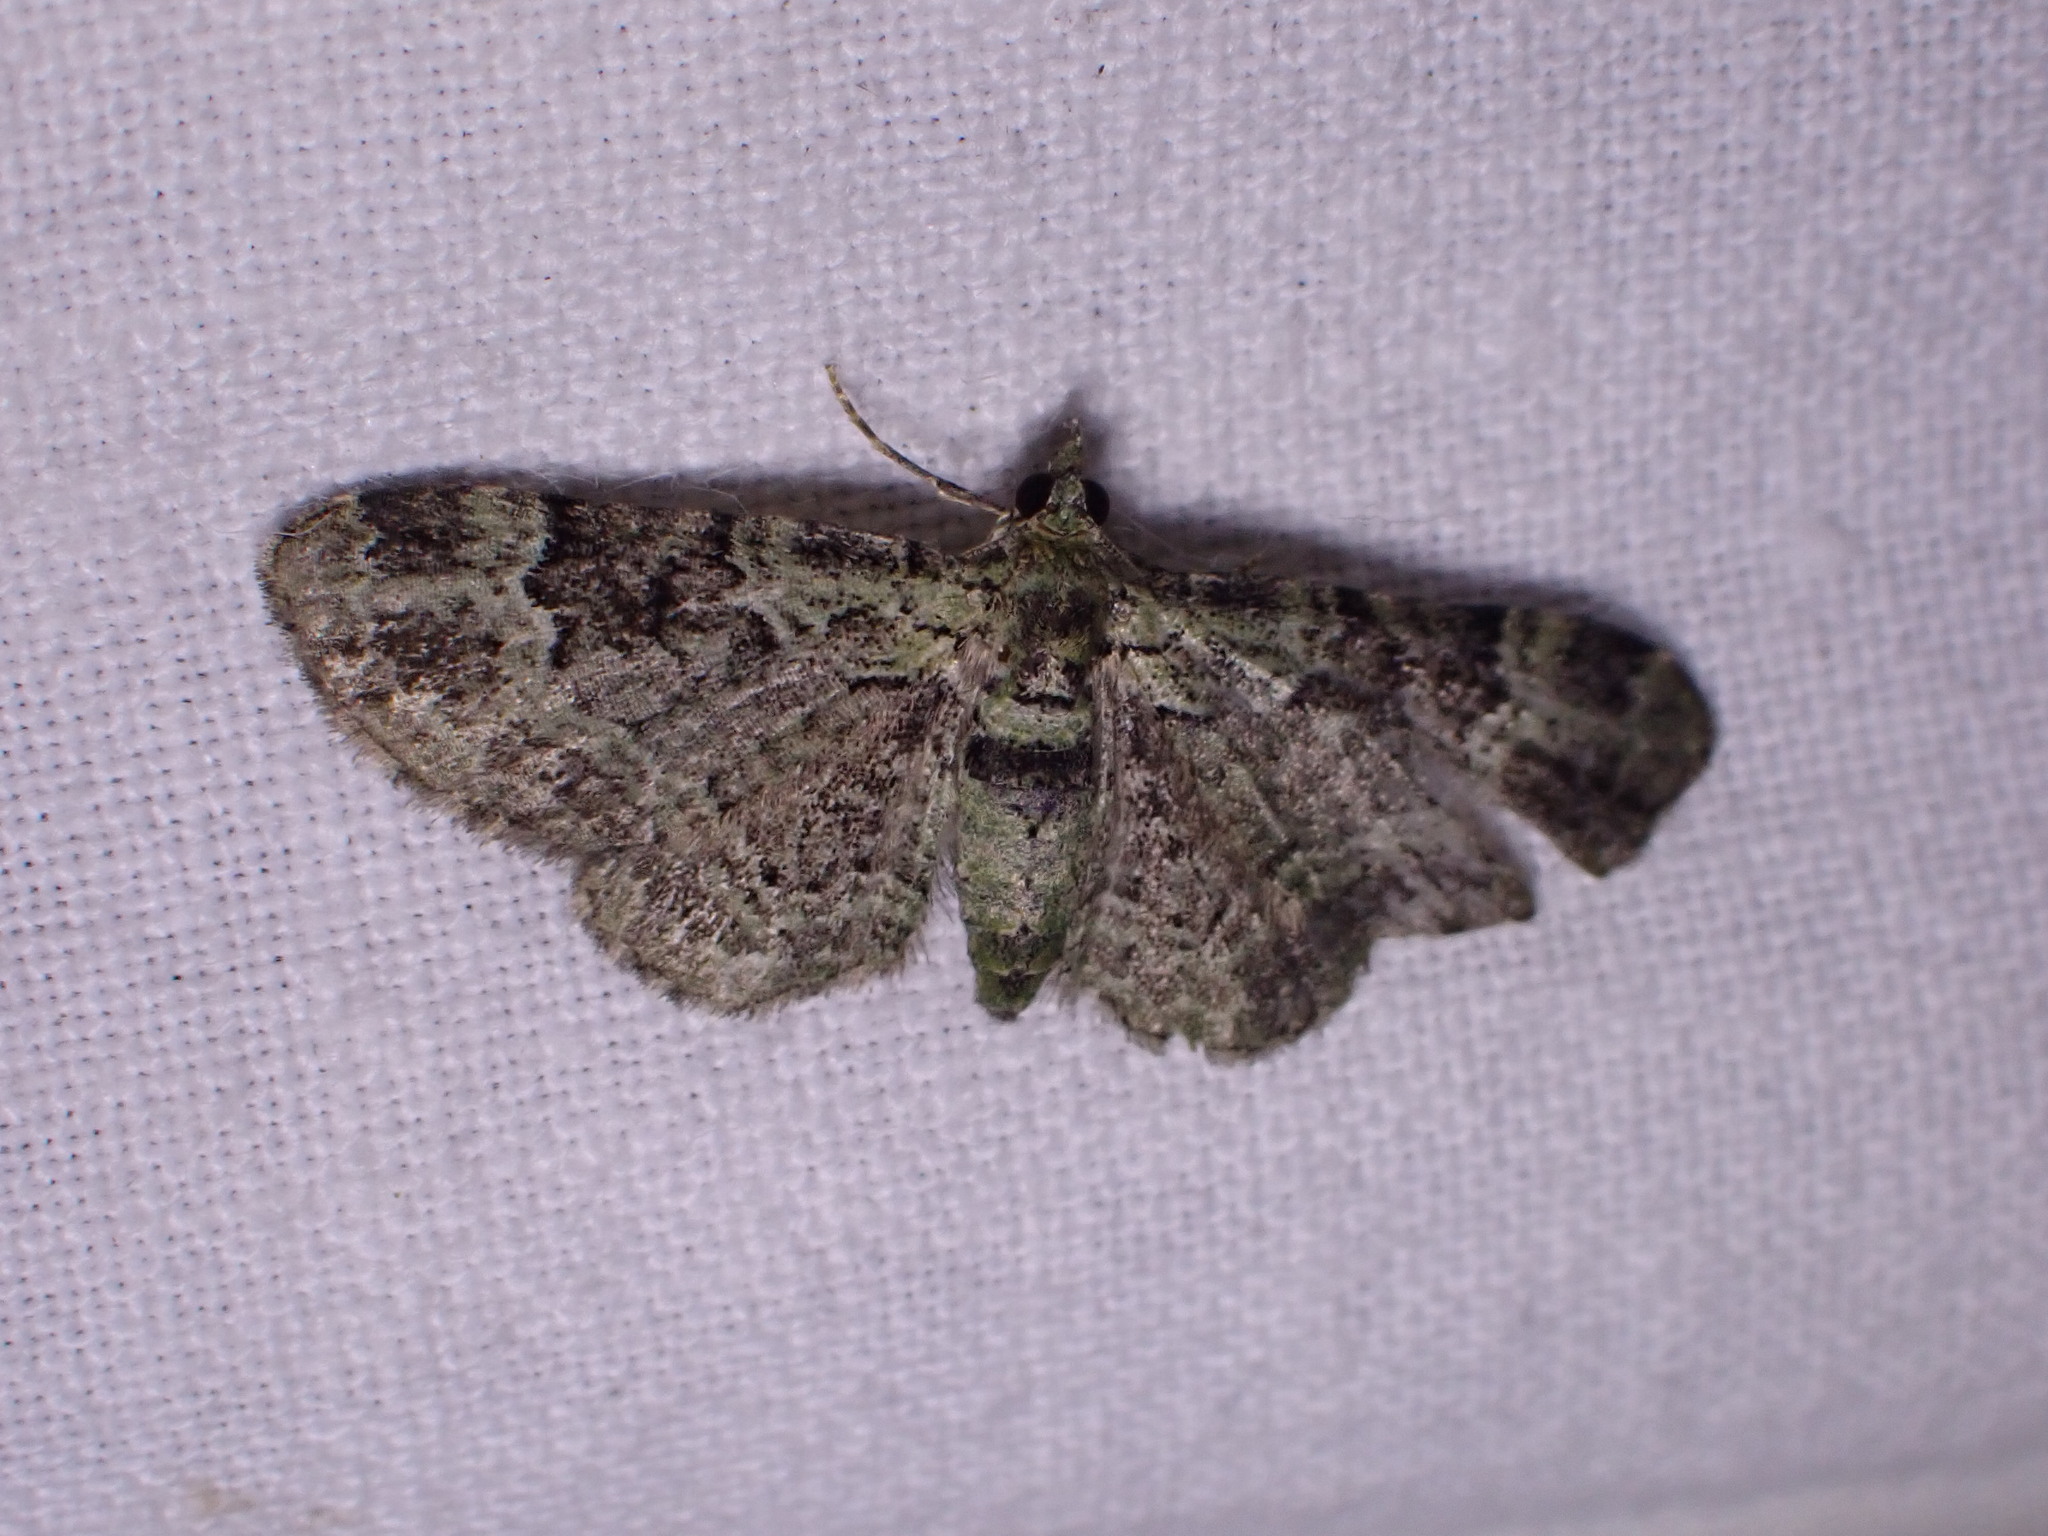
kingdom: Animalia
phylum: Arthropoda
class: Insecta
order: Lepidoptera
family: Geometridae
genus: Pasiphila
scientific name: Pasiphila rectangulata
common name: Green pug
